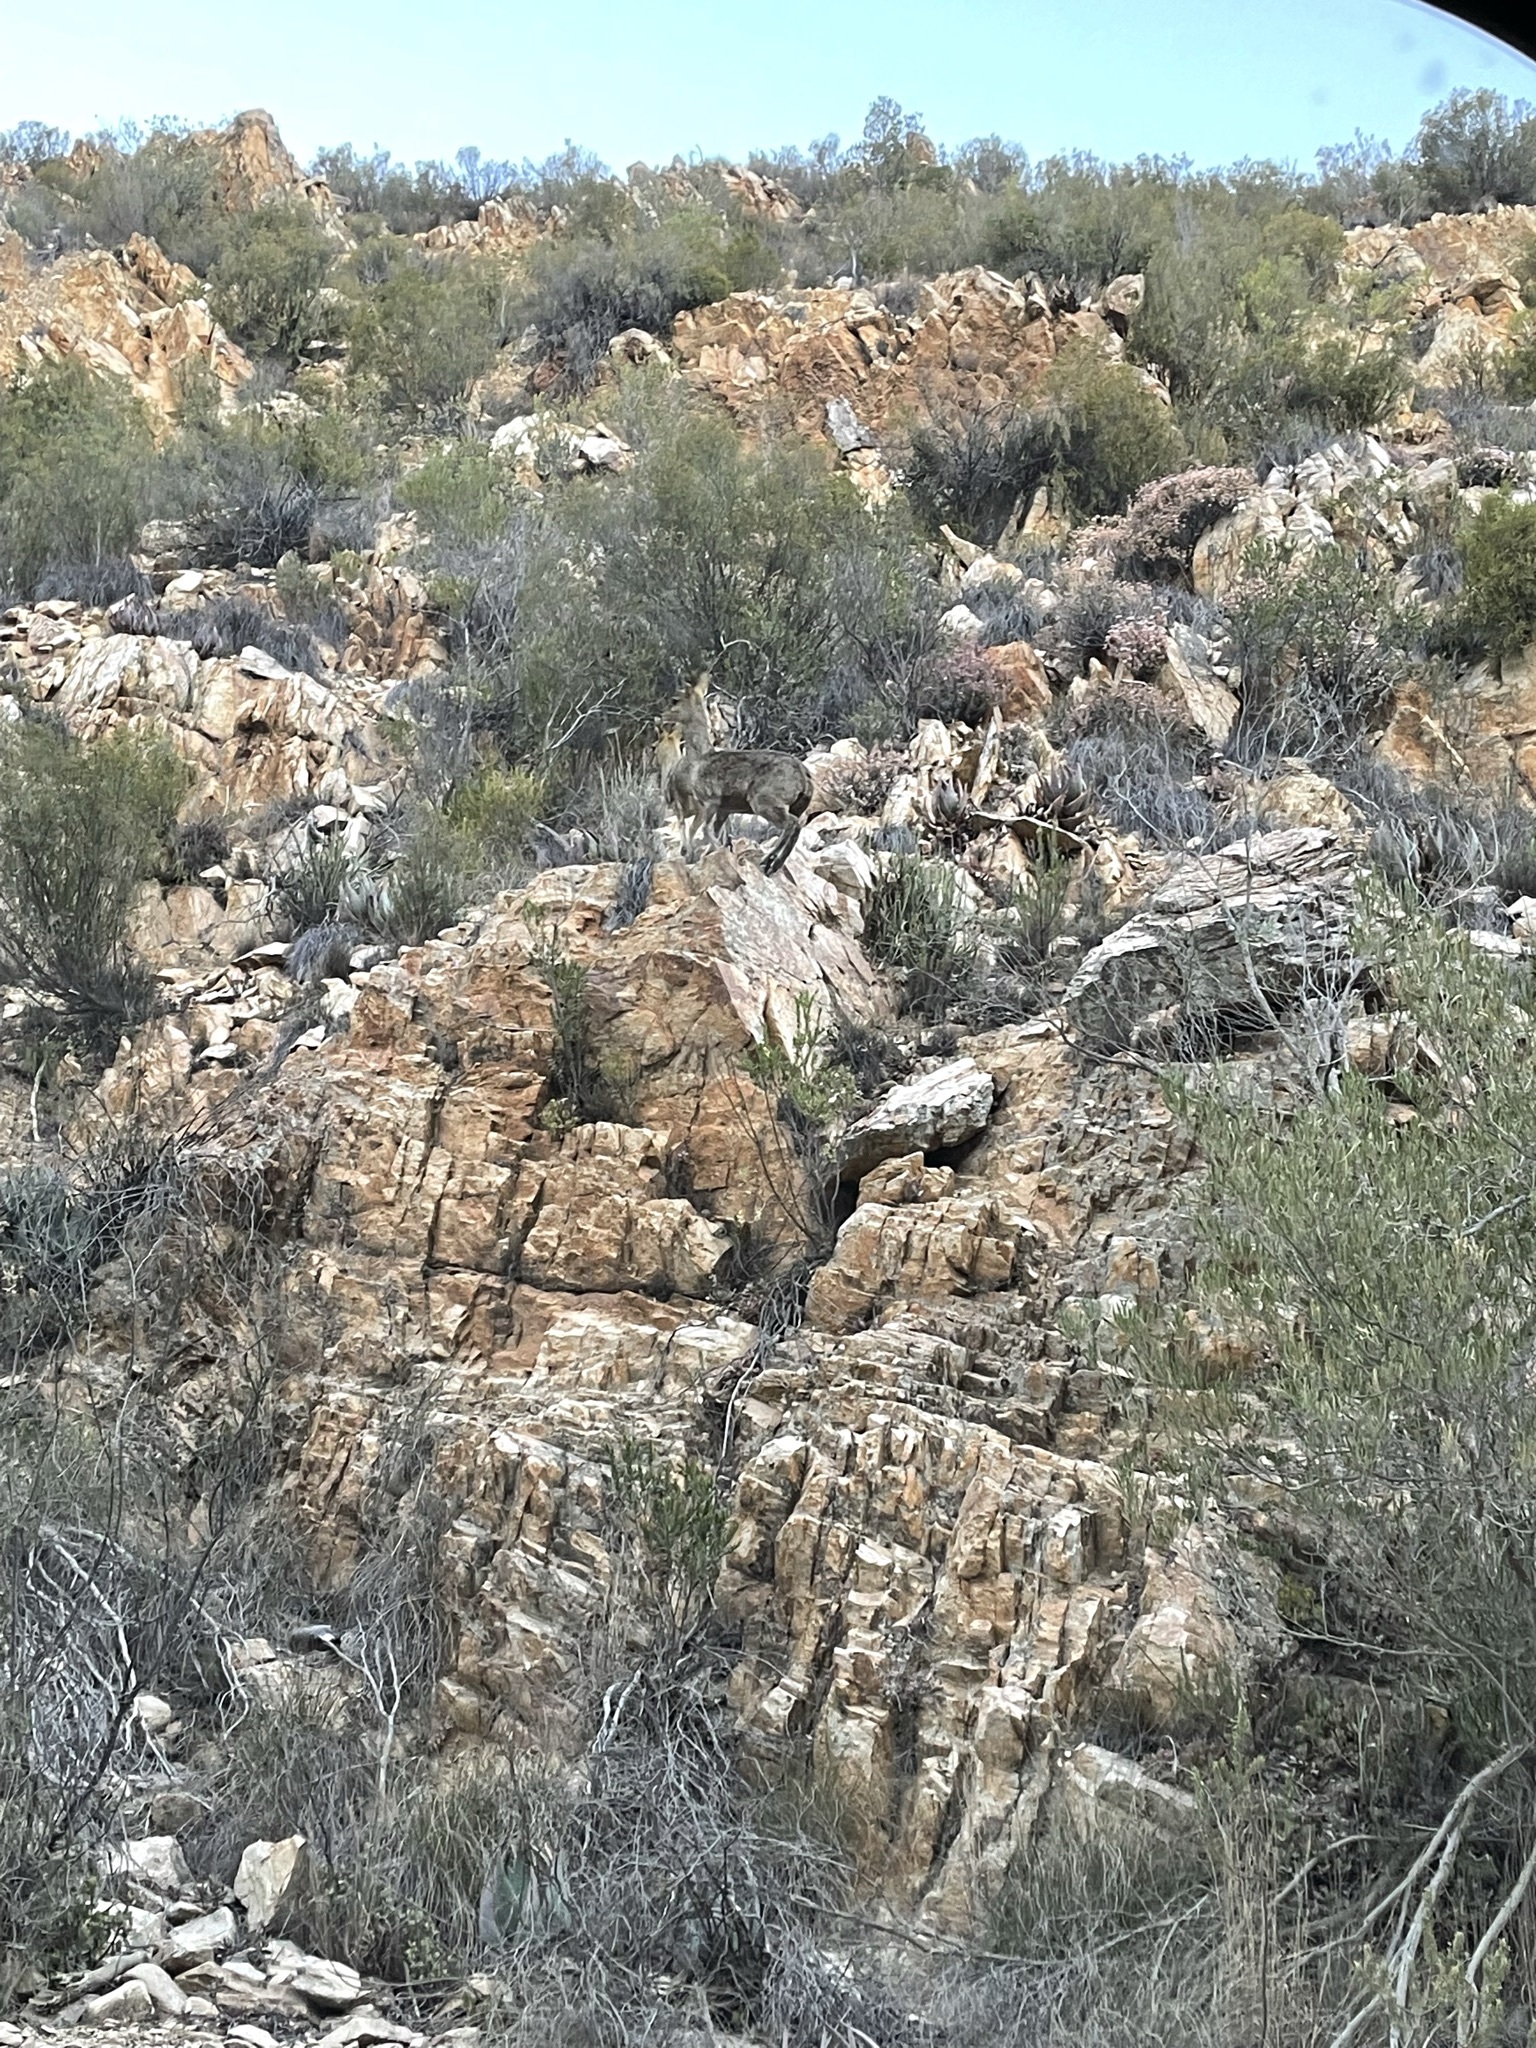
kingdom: Animalia
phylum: Chordata
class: Mammalia
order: Artiodactyla
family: Bovidae
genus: Oreotragus
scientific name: Oreotragus oreotragus
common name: Klipspringer
